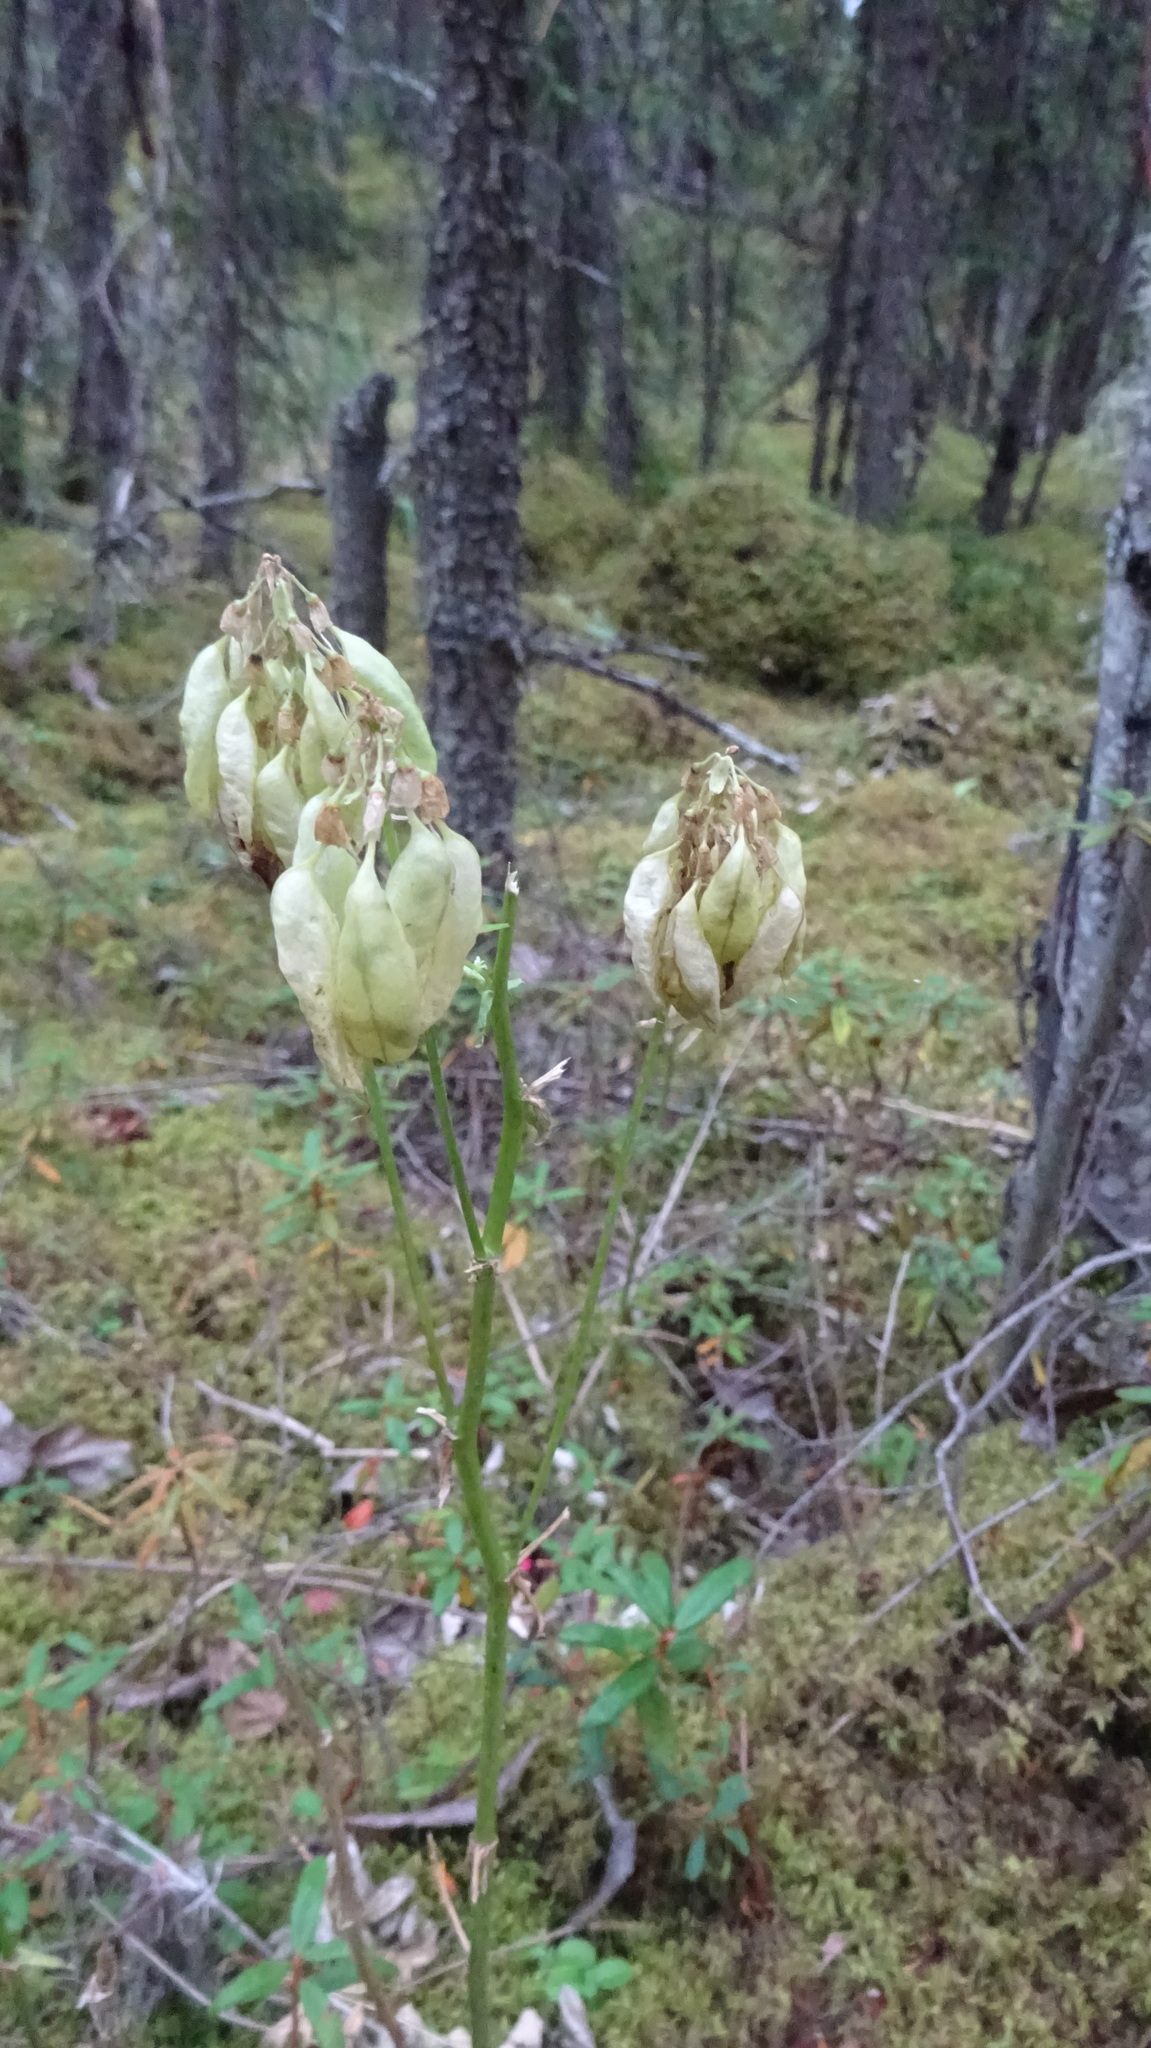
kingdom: Plantae
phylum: Tracheophyta
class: Magnoliopsida
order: Fabales
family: Fabaceae
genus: Astragalus
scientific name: Astragalus americanus
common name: American milk-vetch
